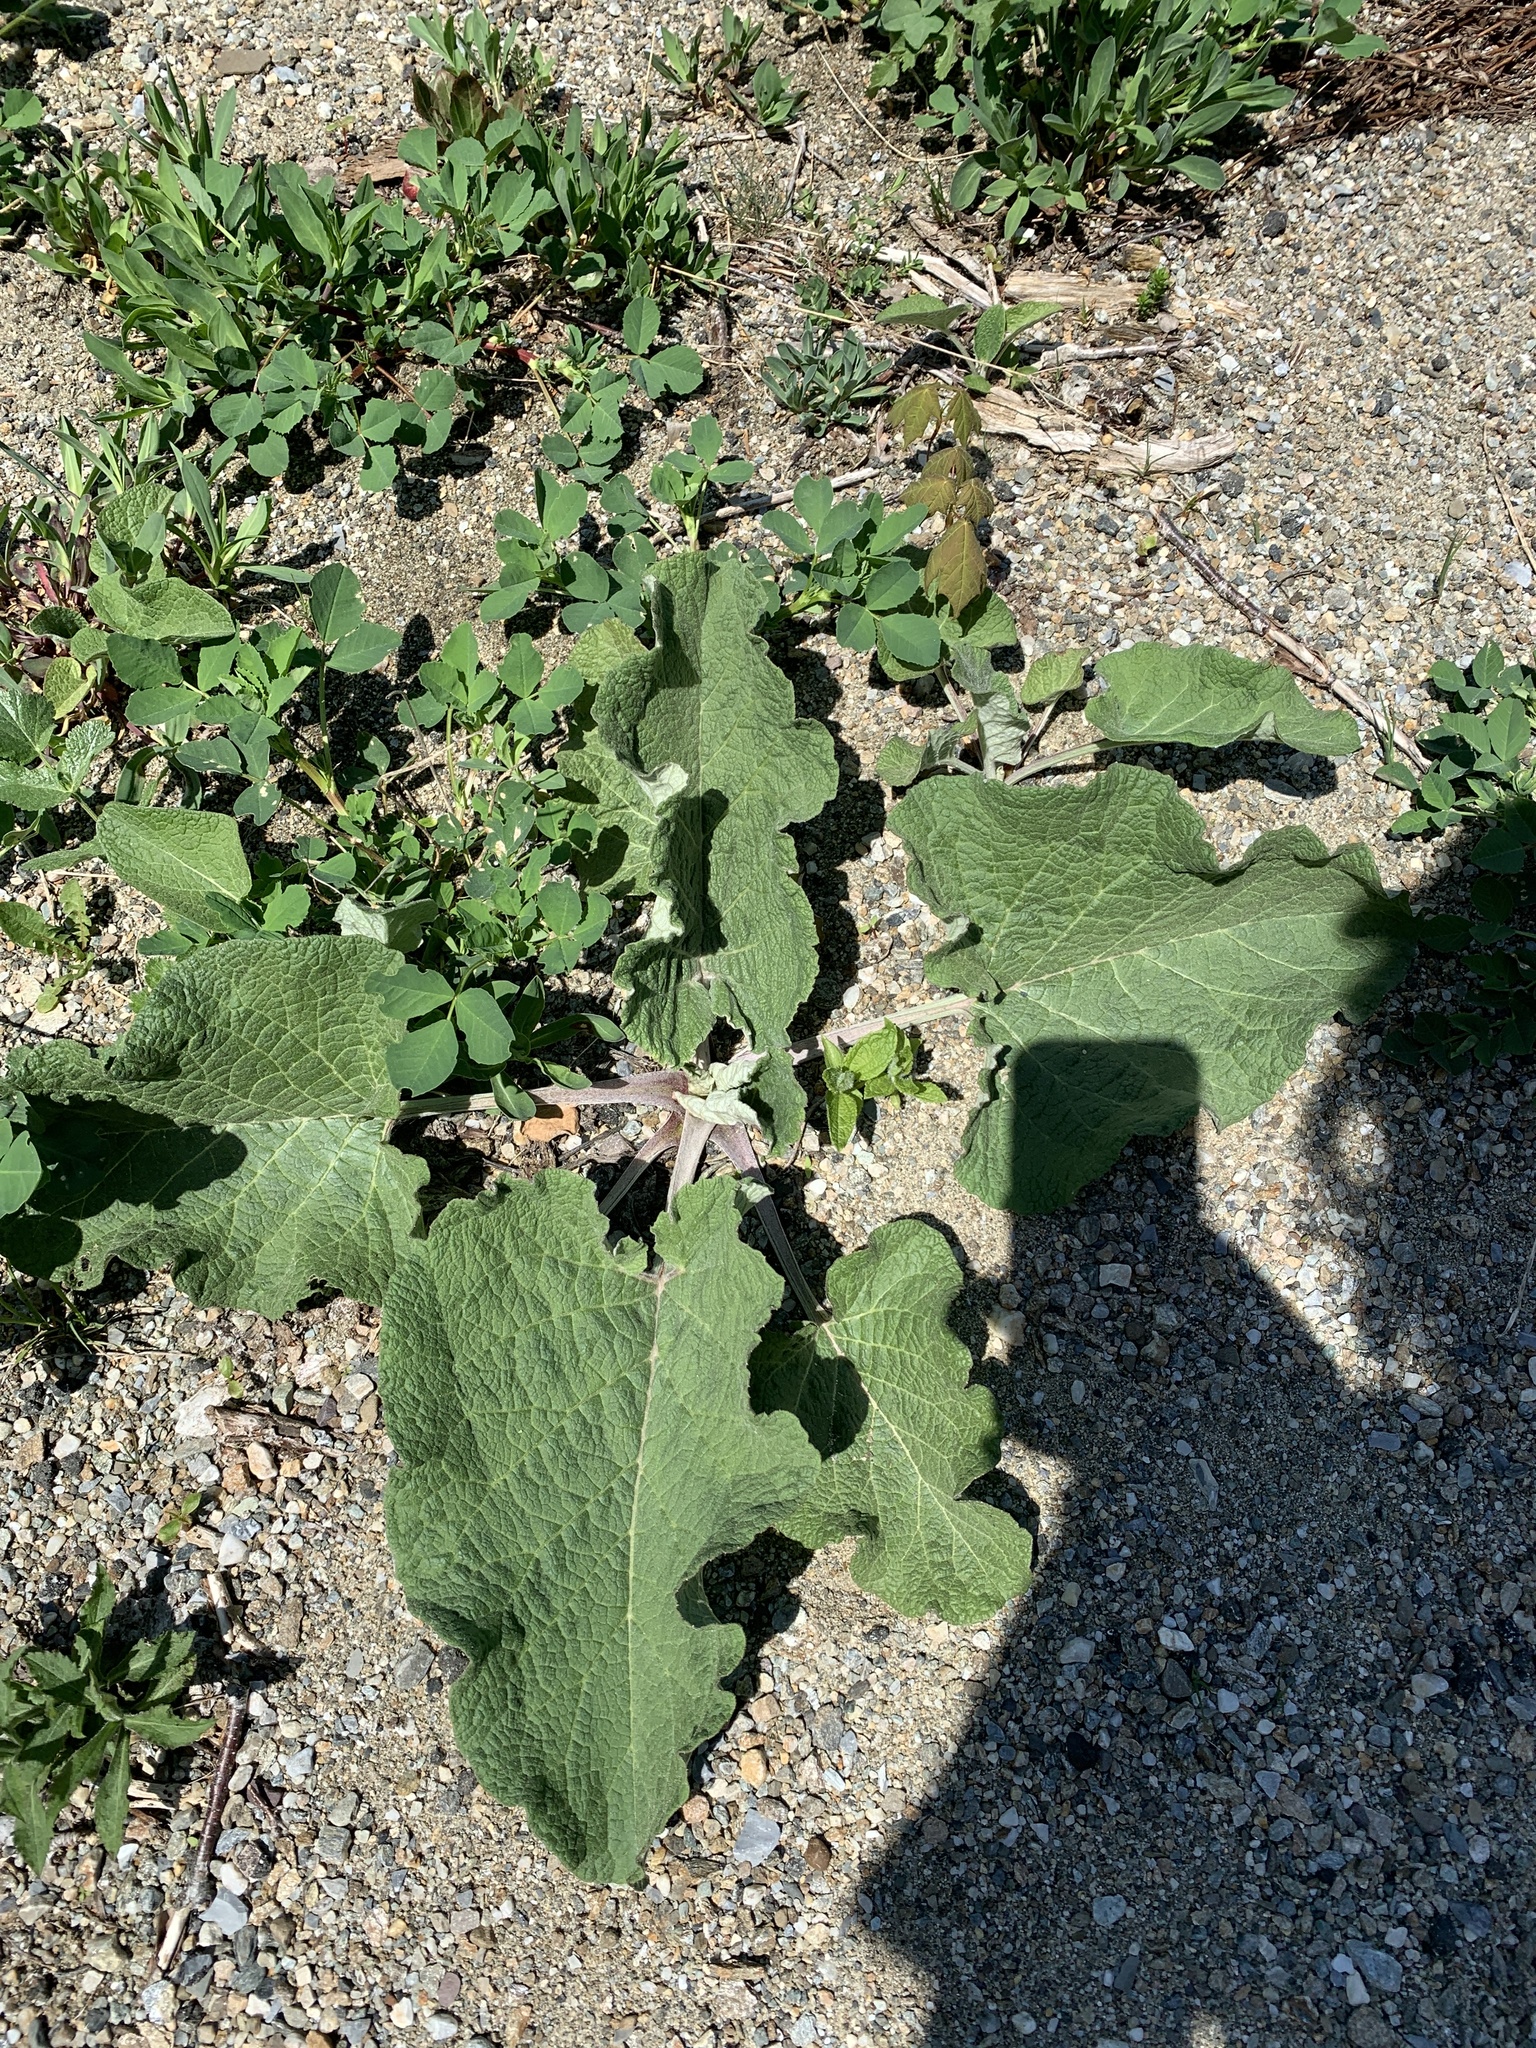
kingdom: Plantae
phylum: Tracheophyta
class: Magnoliopsida
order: Asterales
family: Asteraceae
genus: Arctium
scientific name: Arctium
